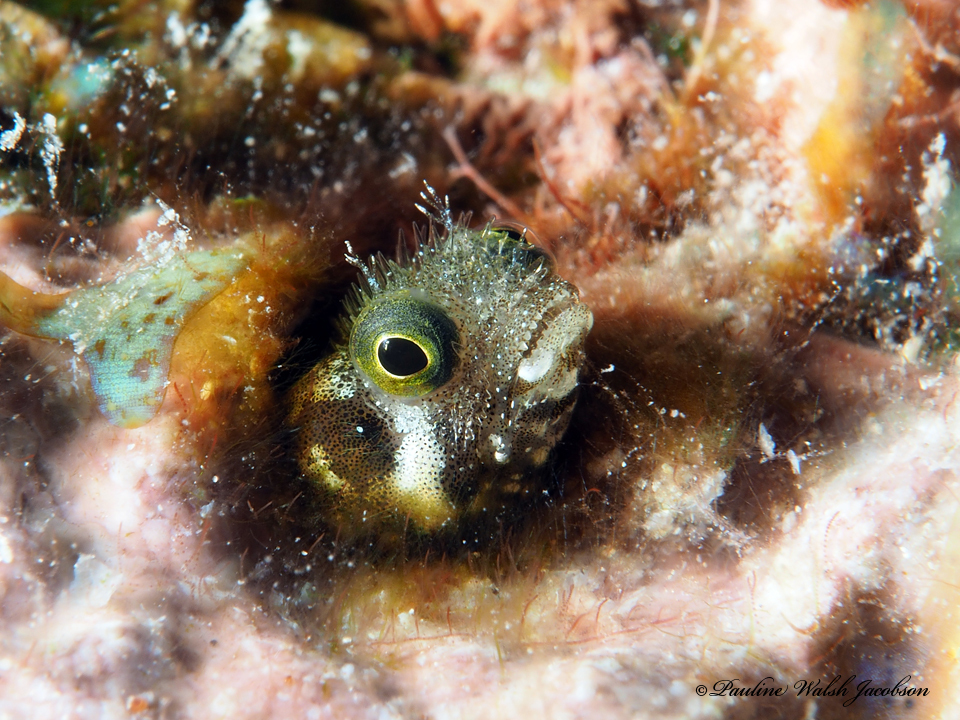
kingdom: Animalia
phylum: Chordata
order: Perciformes
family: Chaenopsidae
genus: Acanthemblemaria
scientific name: Acanthemblemaria spinosa
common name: Spinyhead blenny
